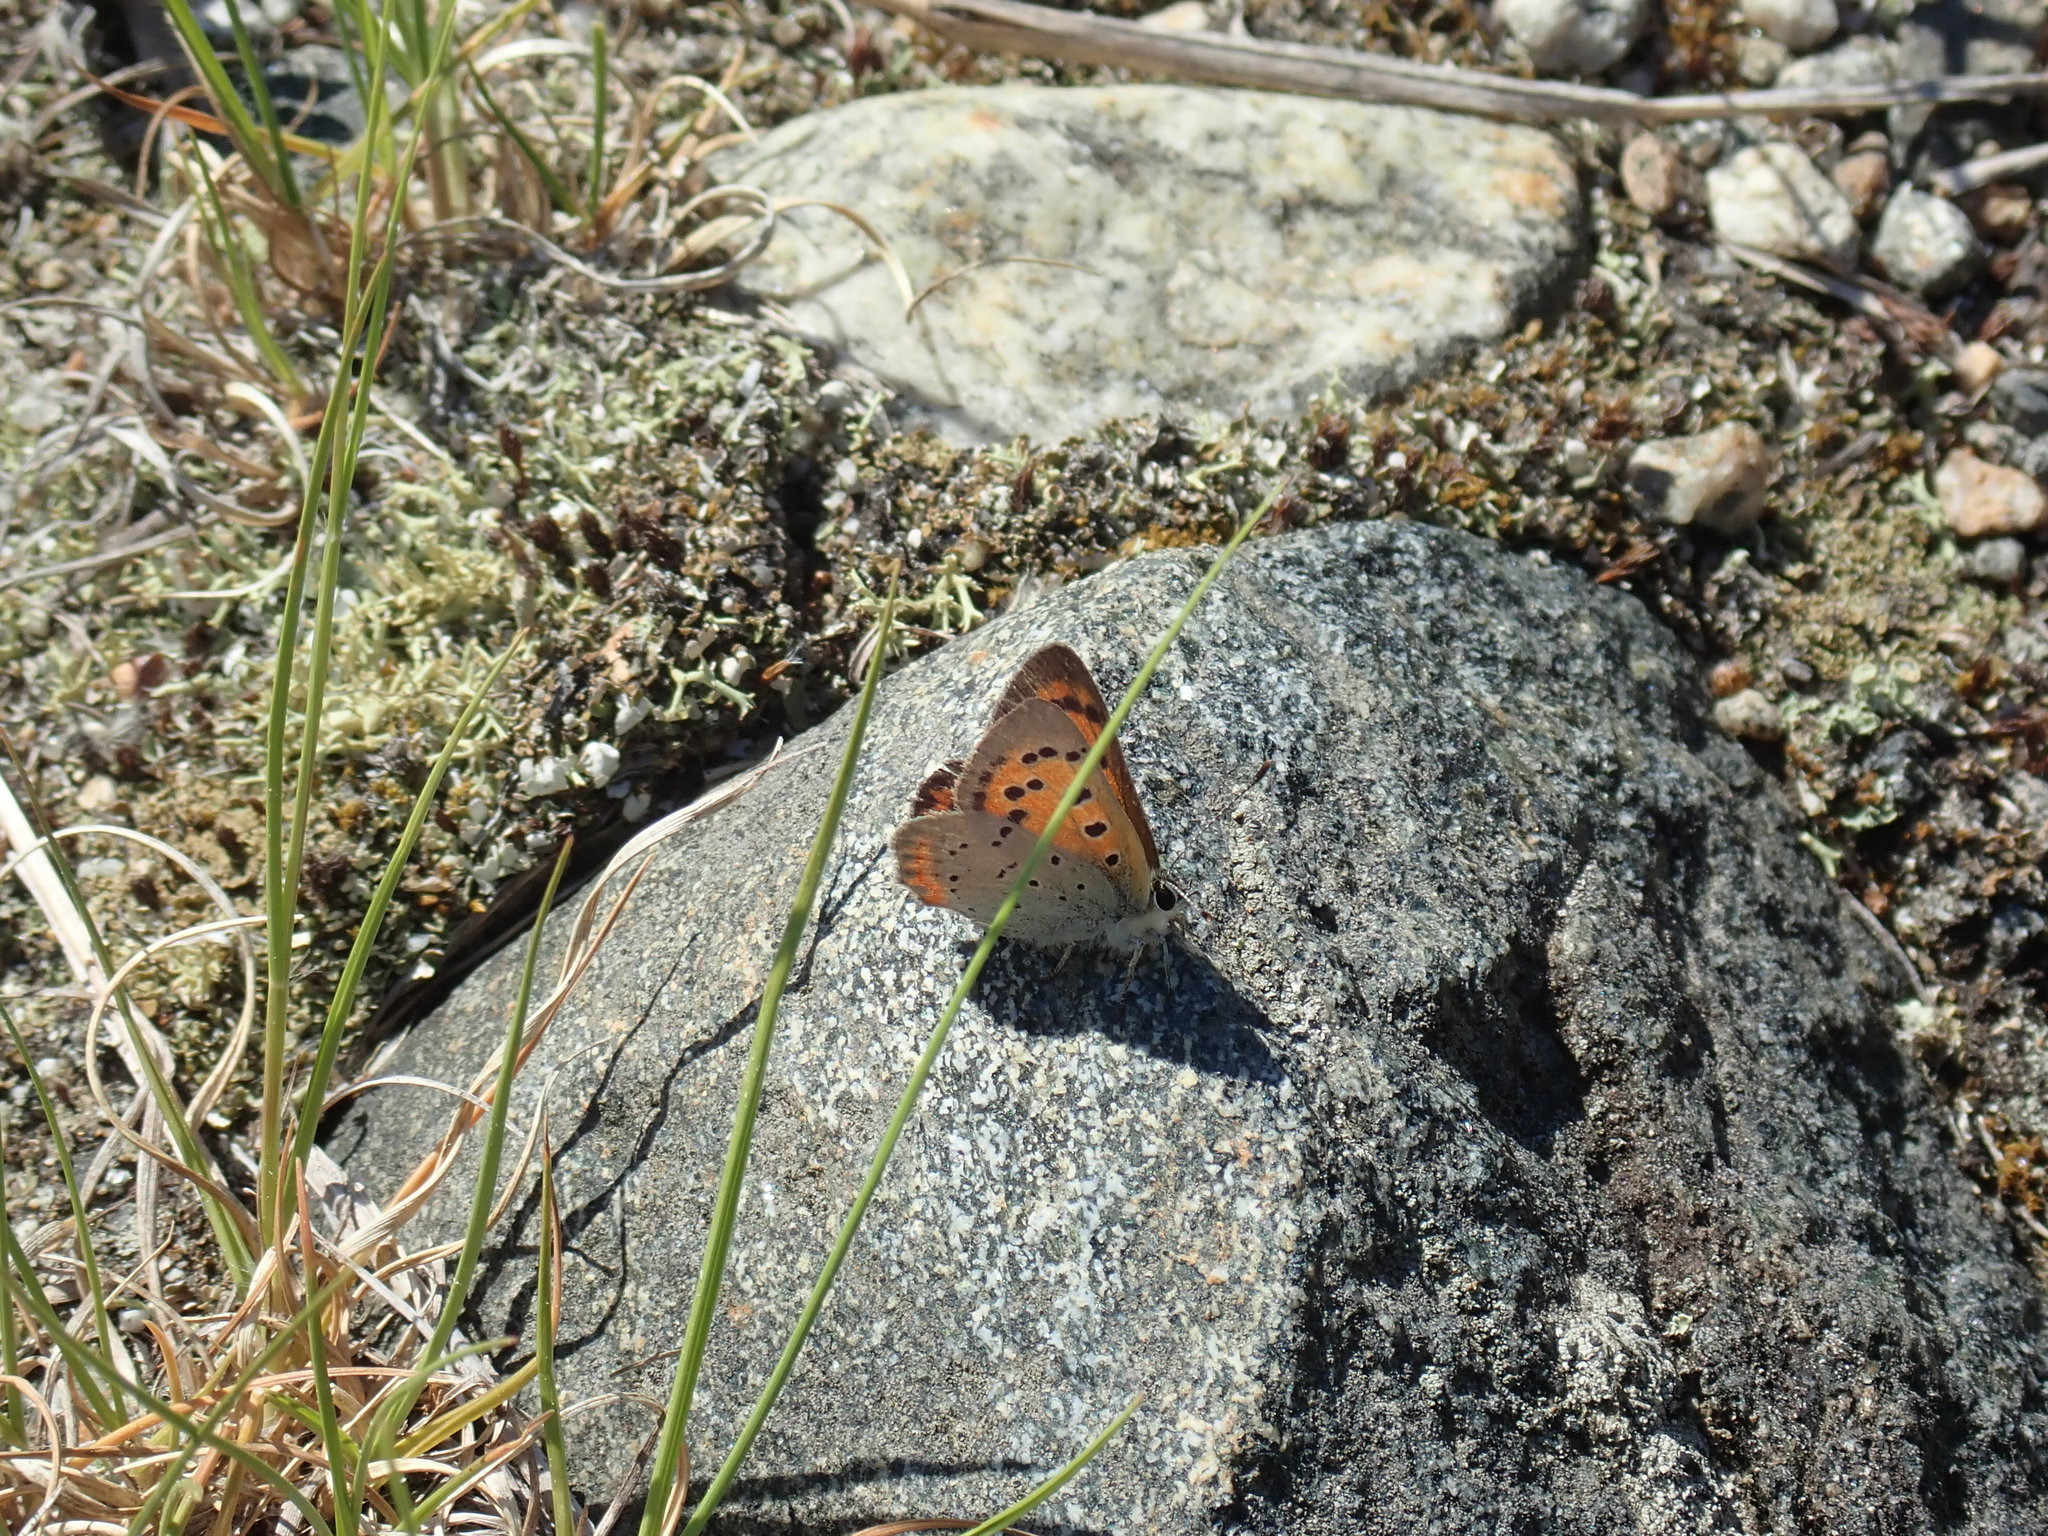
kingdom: Animalia
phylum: Arthropoda
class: Insecta
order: Lepidoptera
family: Lycaenidae
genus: Lycaena
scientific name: Lycaena hypophlaeas
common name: American copper
